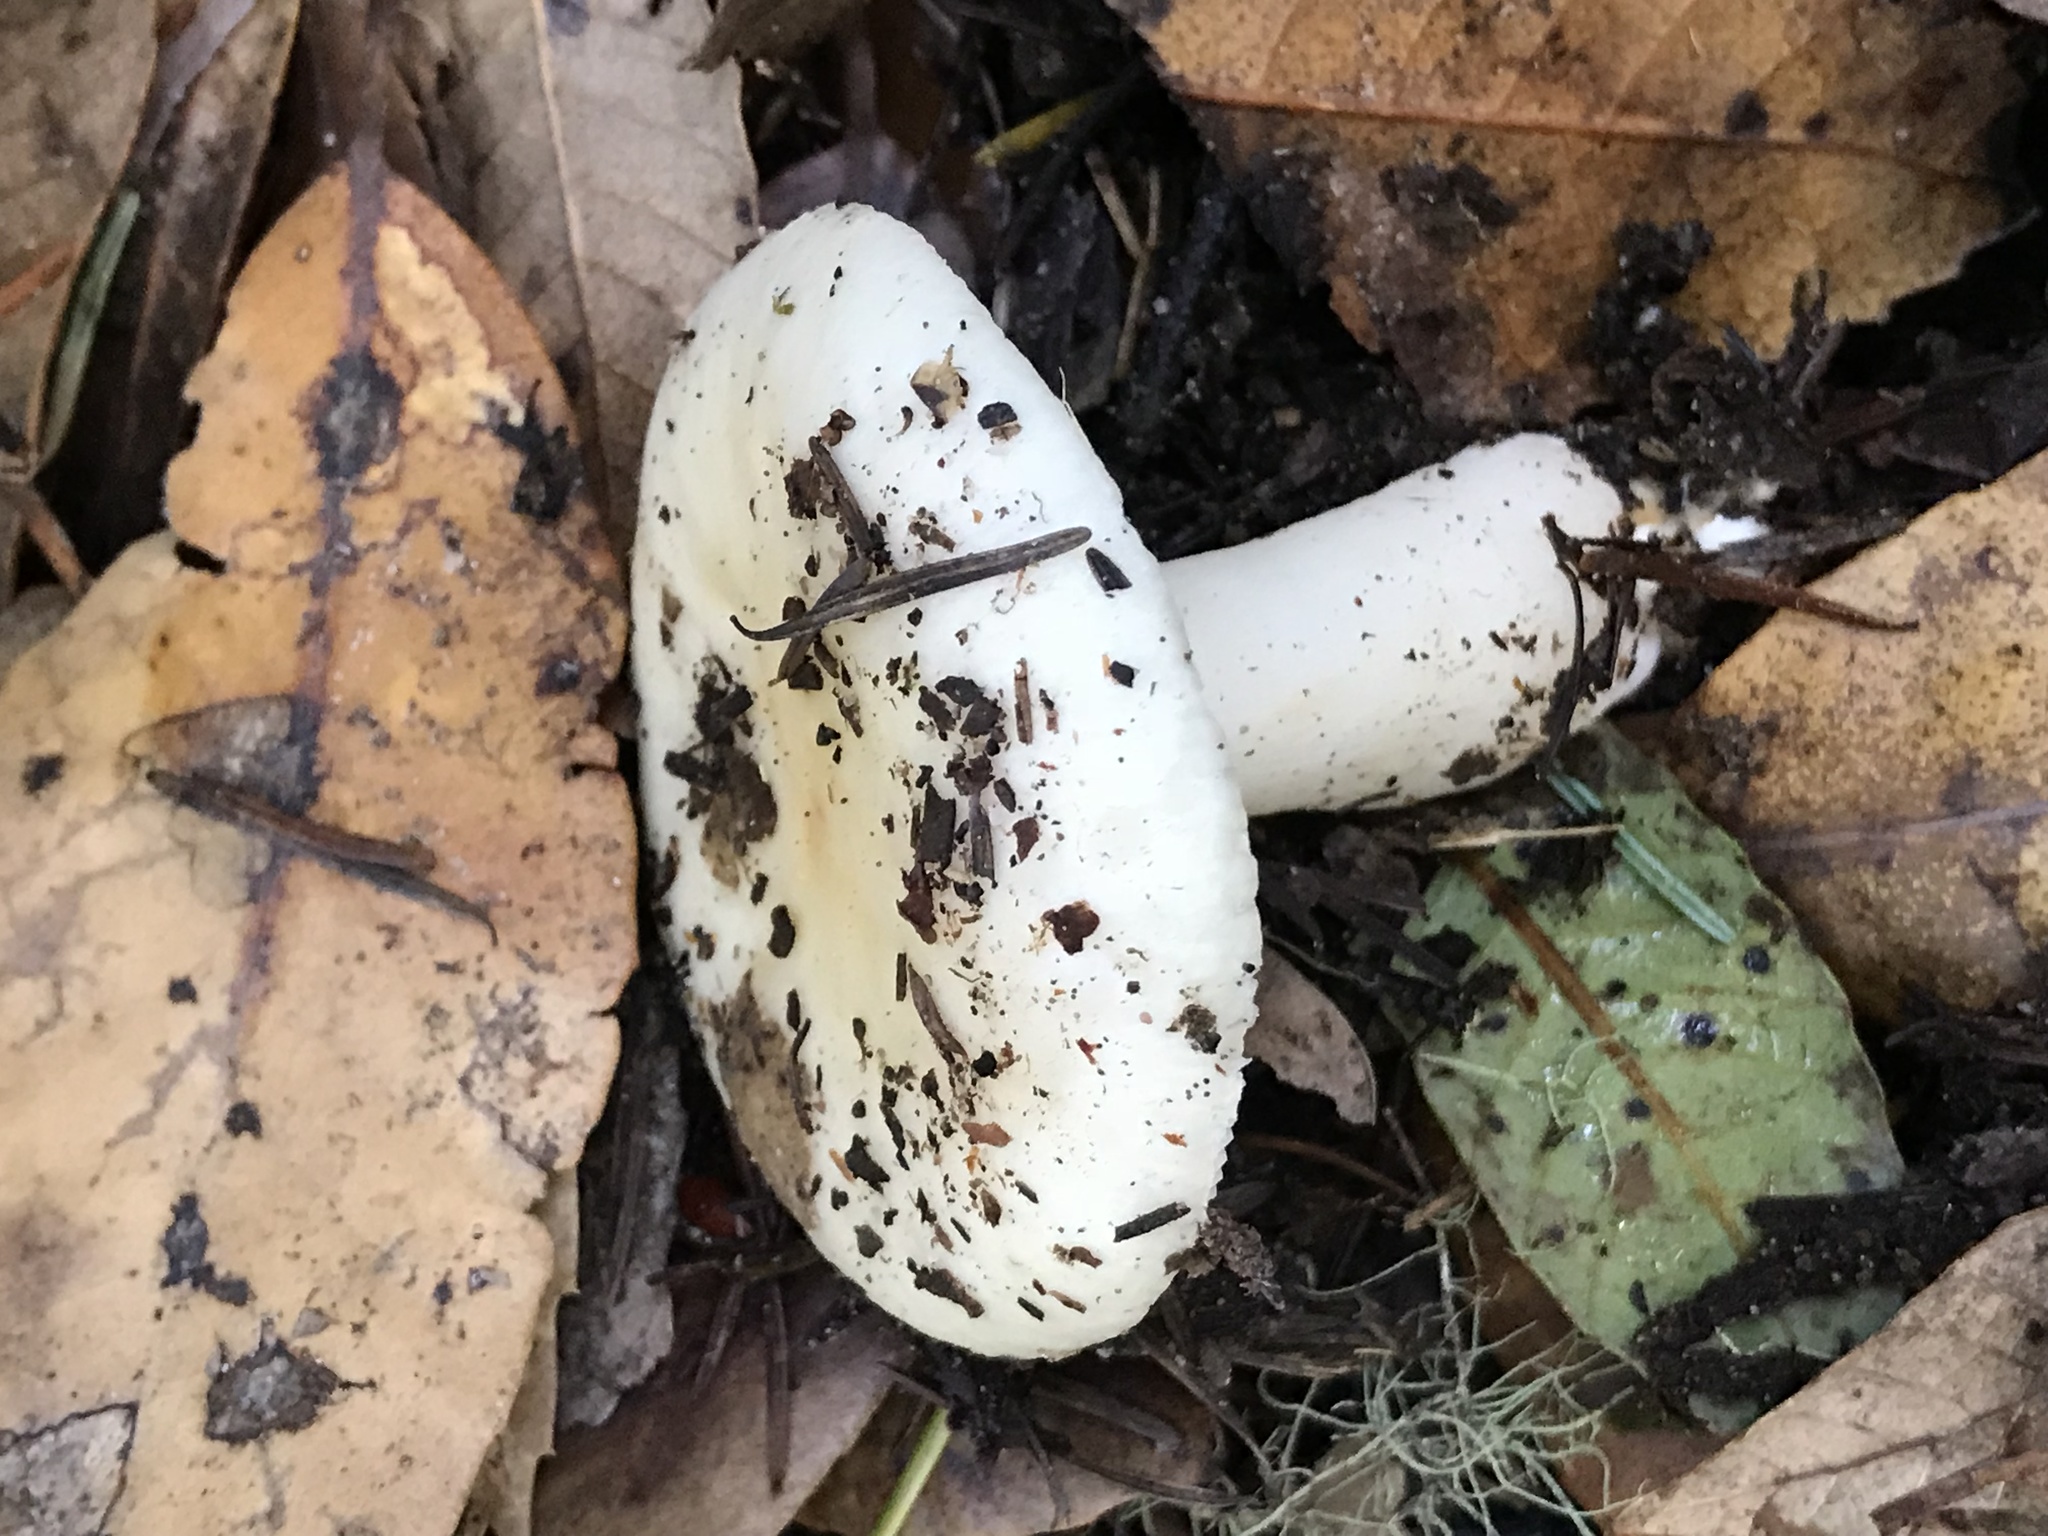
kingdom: Fungi
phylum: Basidiomycota
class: Agaricomycetes
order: Russulales
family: Russulaceae
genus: Russula
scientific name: Russula cremoricolor
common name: Winter russula
